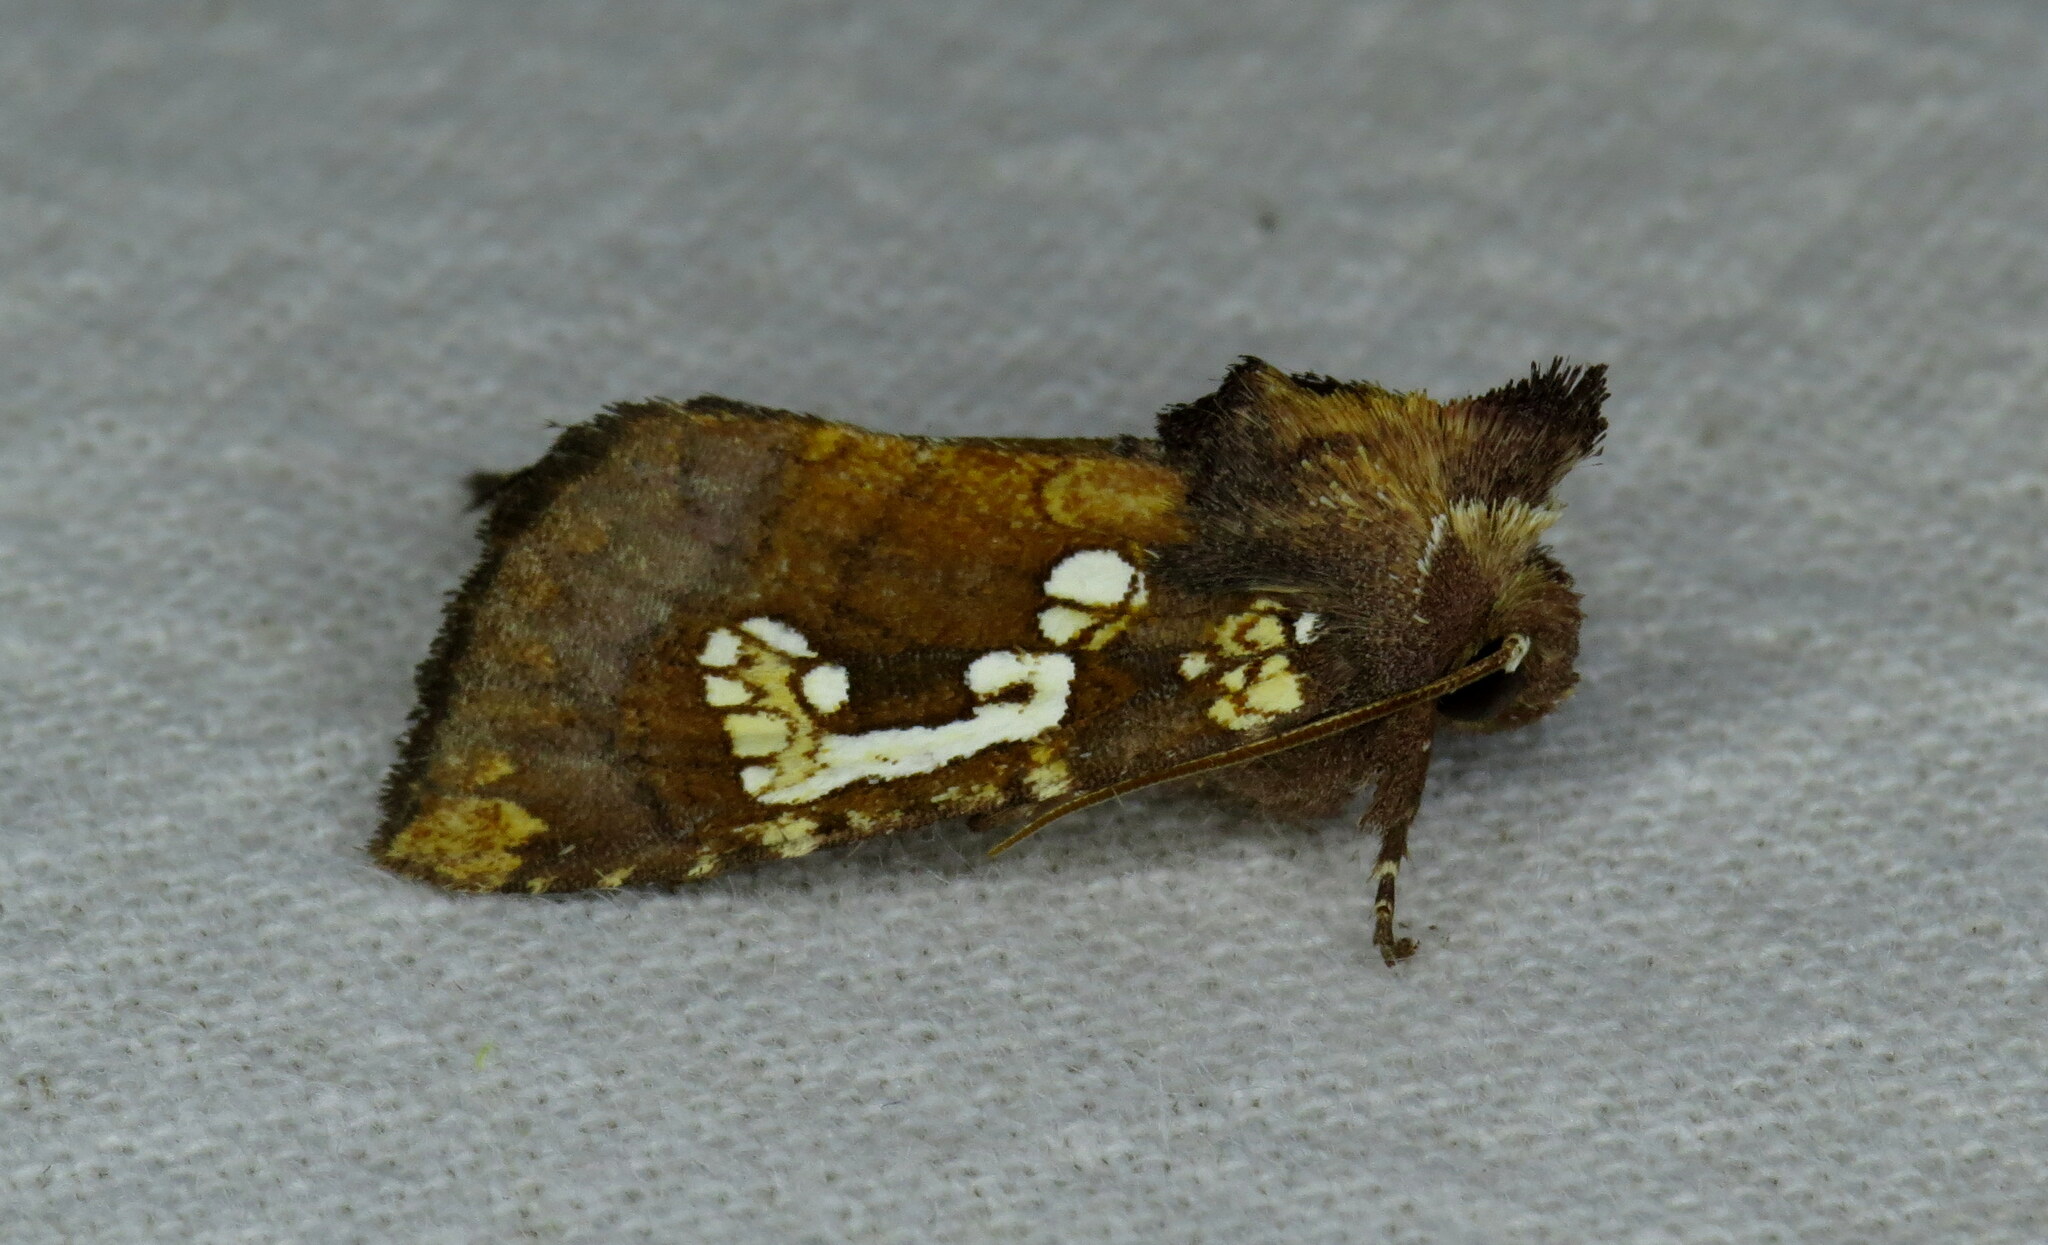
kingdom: Animalia
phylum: Arthropoda
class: Insecta
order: Lepidoptera
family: Noctuidae
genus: Papaipema
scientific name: Papaipema nepheleptena
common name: Turtle head borer moth
